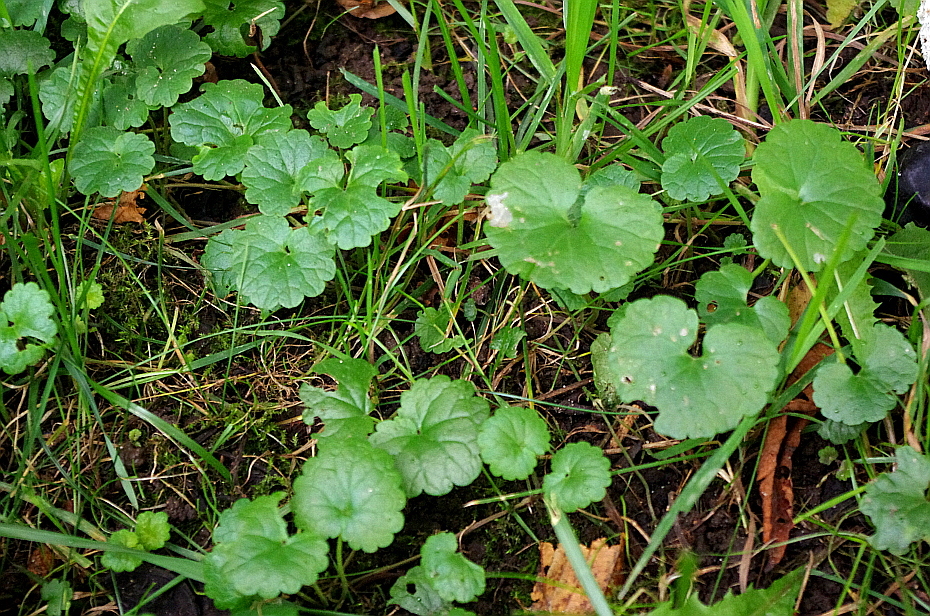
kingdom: Plantae
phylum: Tracheophyta
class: Magnoliopsida
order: Lamiales
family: Lamiaceae
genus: Glechoma
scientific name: Glechoma hederacea
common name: Ground ivy
